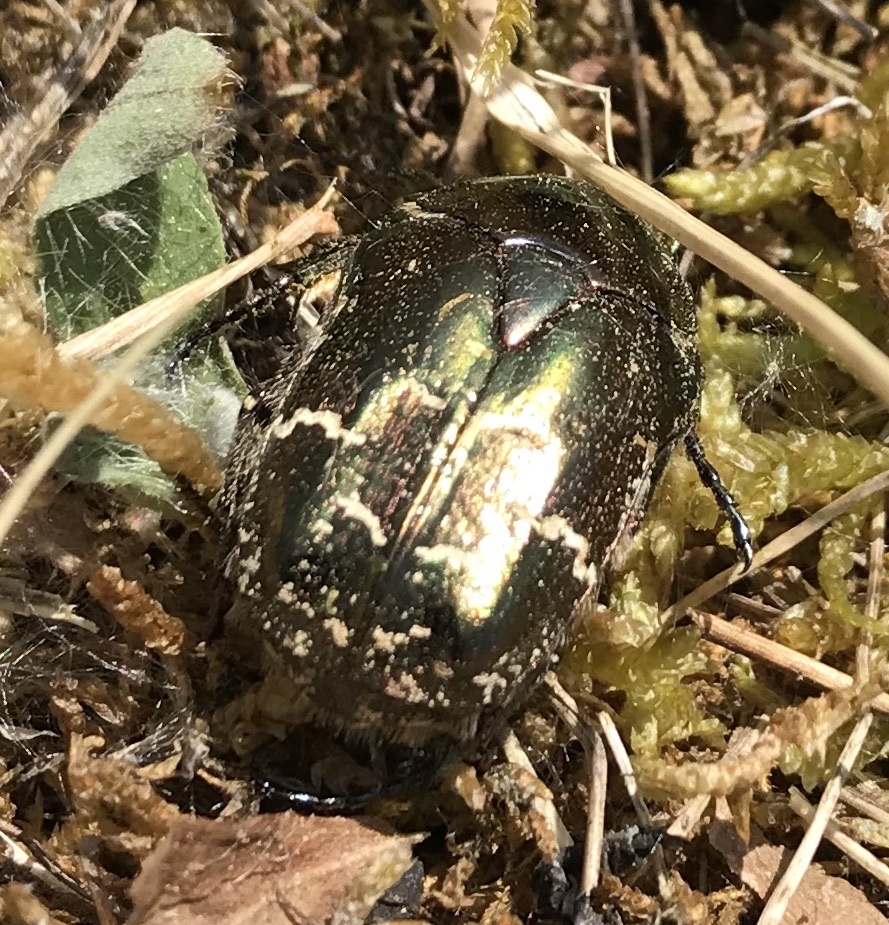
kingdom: Animalia
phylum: Arthropoda
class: Insecta
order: Coleoptera
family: Scarabaeidae
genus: Protaetia
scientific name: Protaetia cuprea
